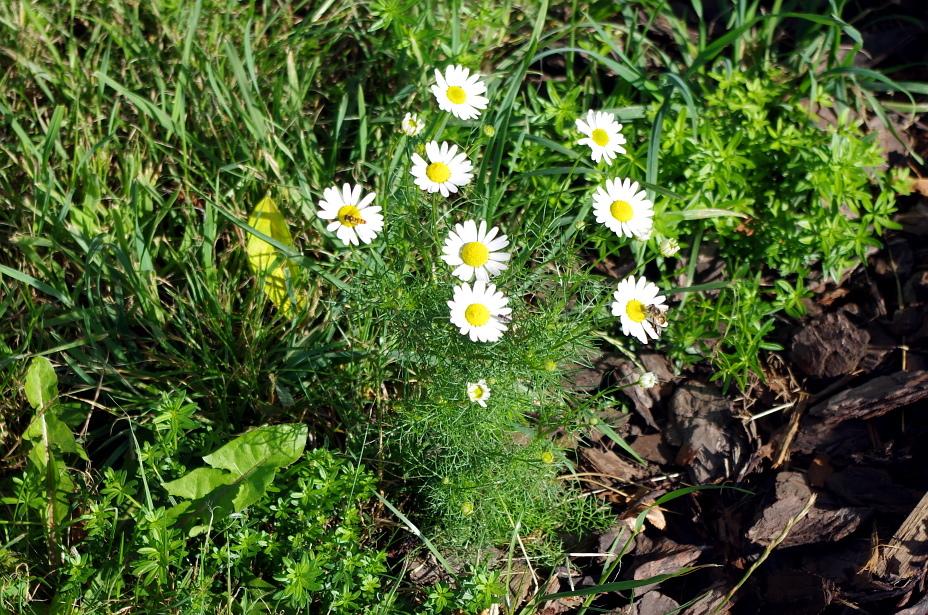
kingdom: Plantae
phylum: Tracheophyta
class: Magnoliopsida
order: Asterales
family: Asteraceae
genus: Tripleurospermum
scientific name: Tripleurospermum inodorum
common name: Scentless mayweed
